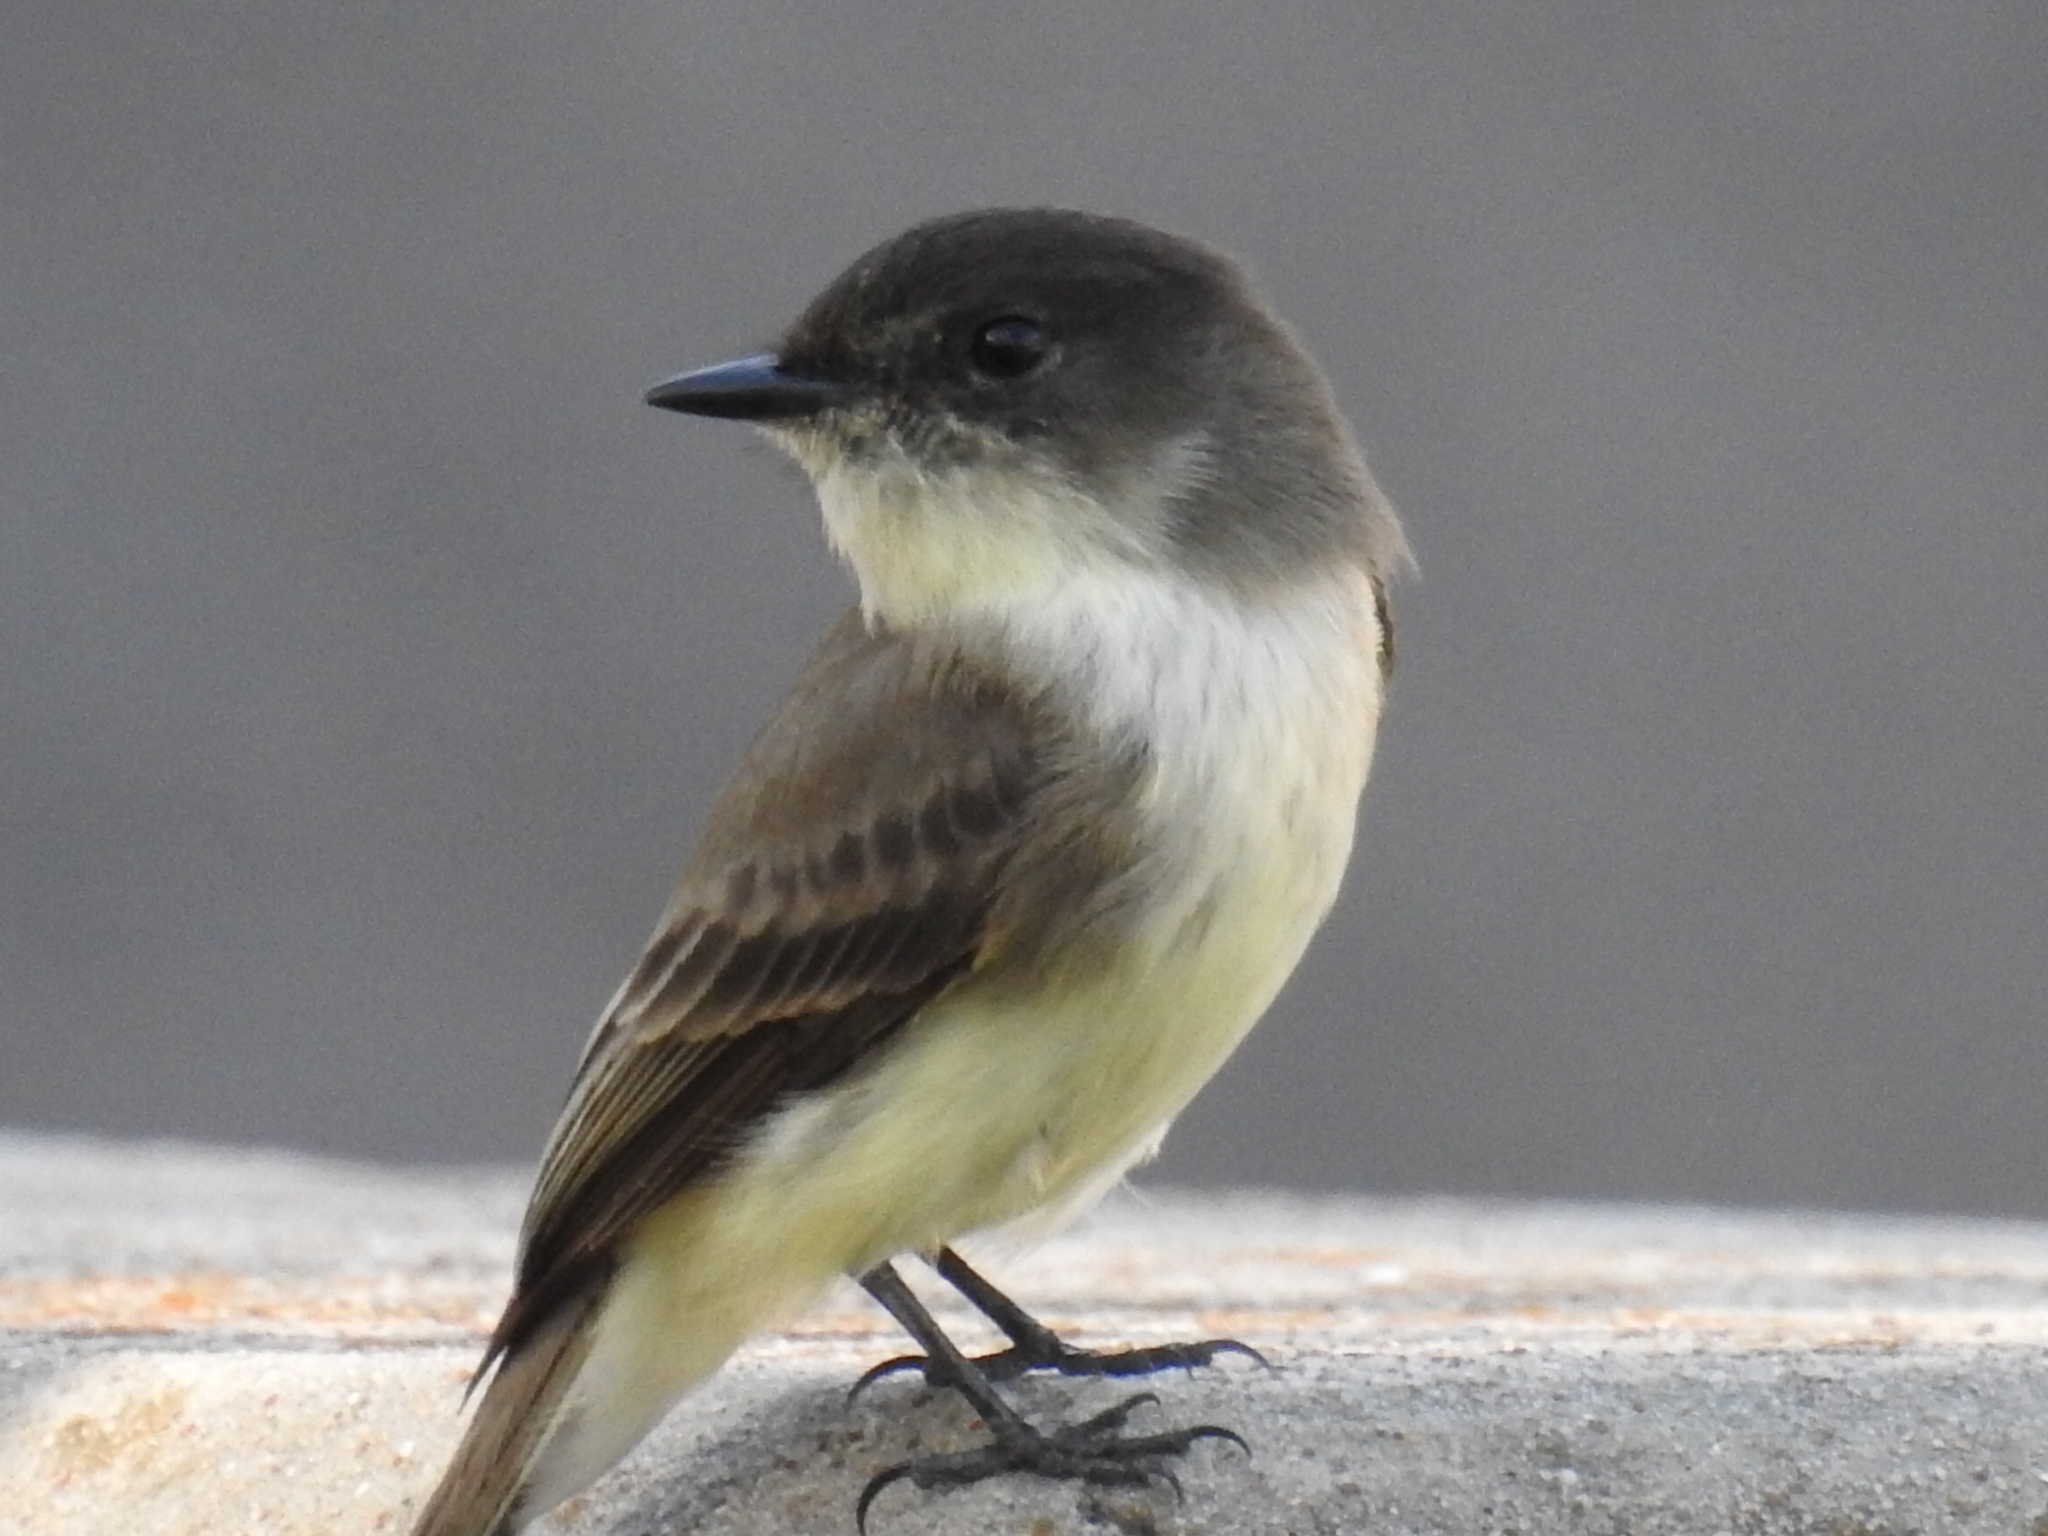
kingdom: Animalia
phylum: Chordata
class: Aves
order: Passeriformes
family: Tyrannidae
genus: Sayornis
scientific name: Sayornis phoebe
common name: Eastern phoebe
